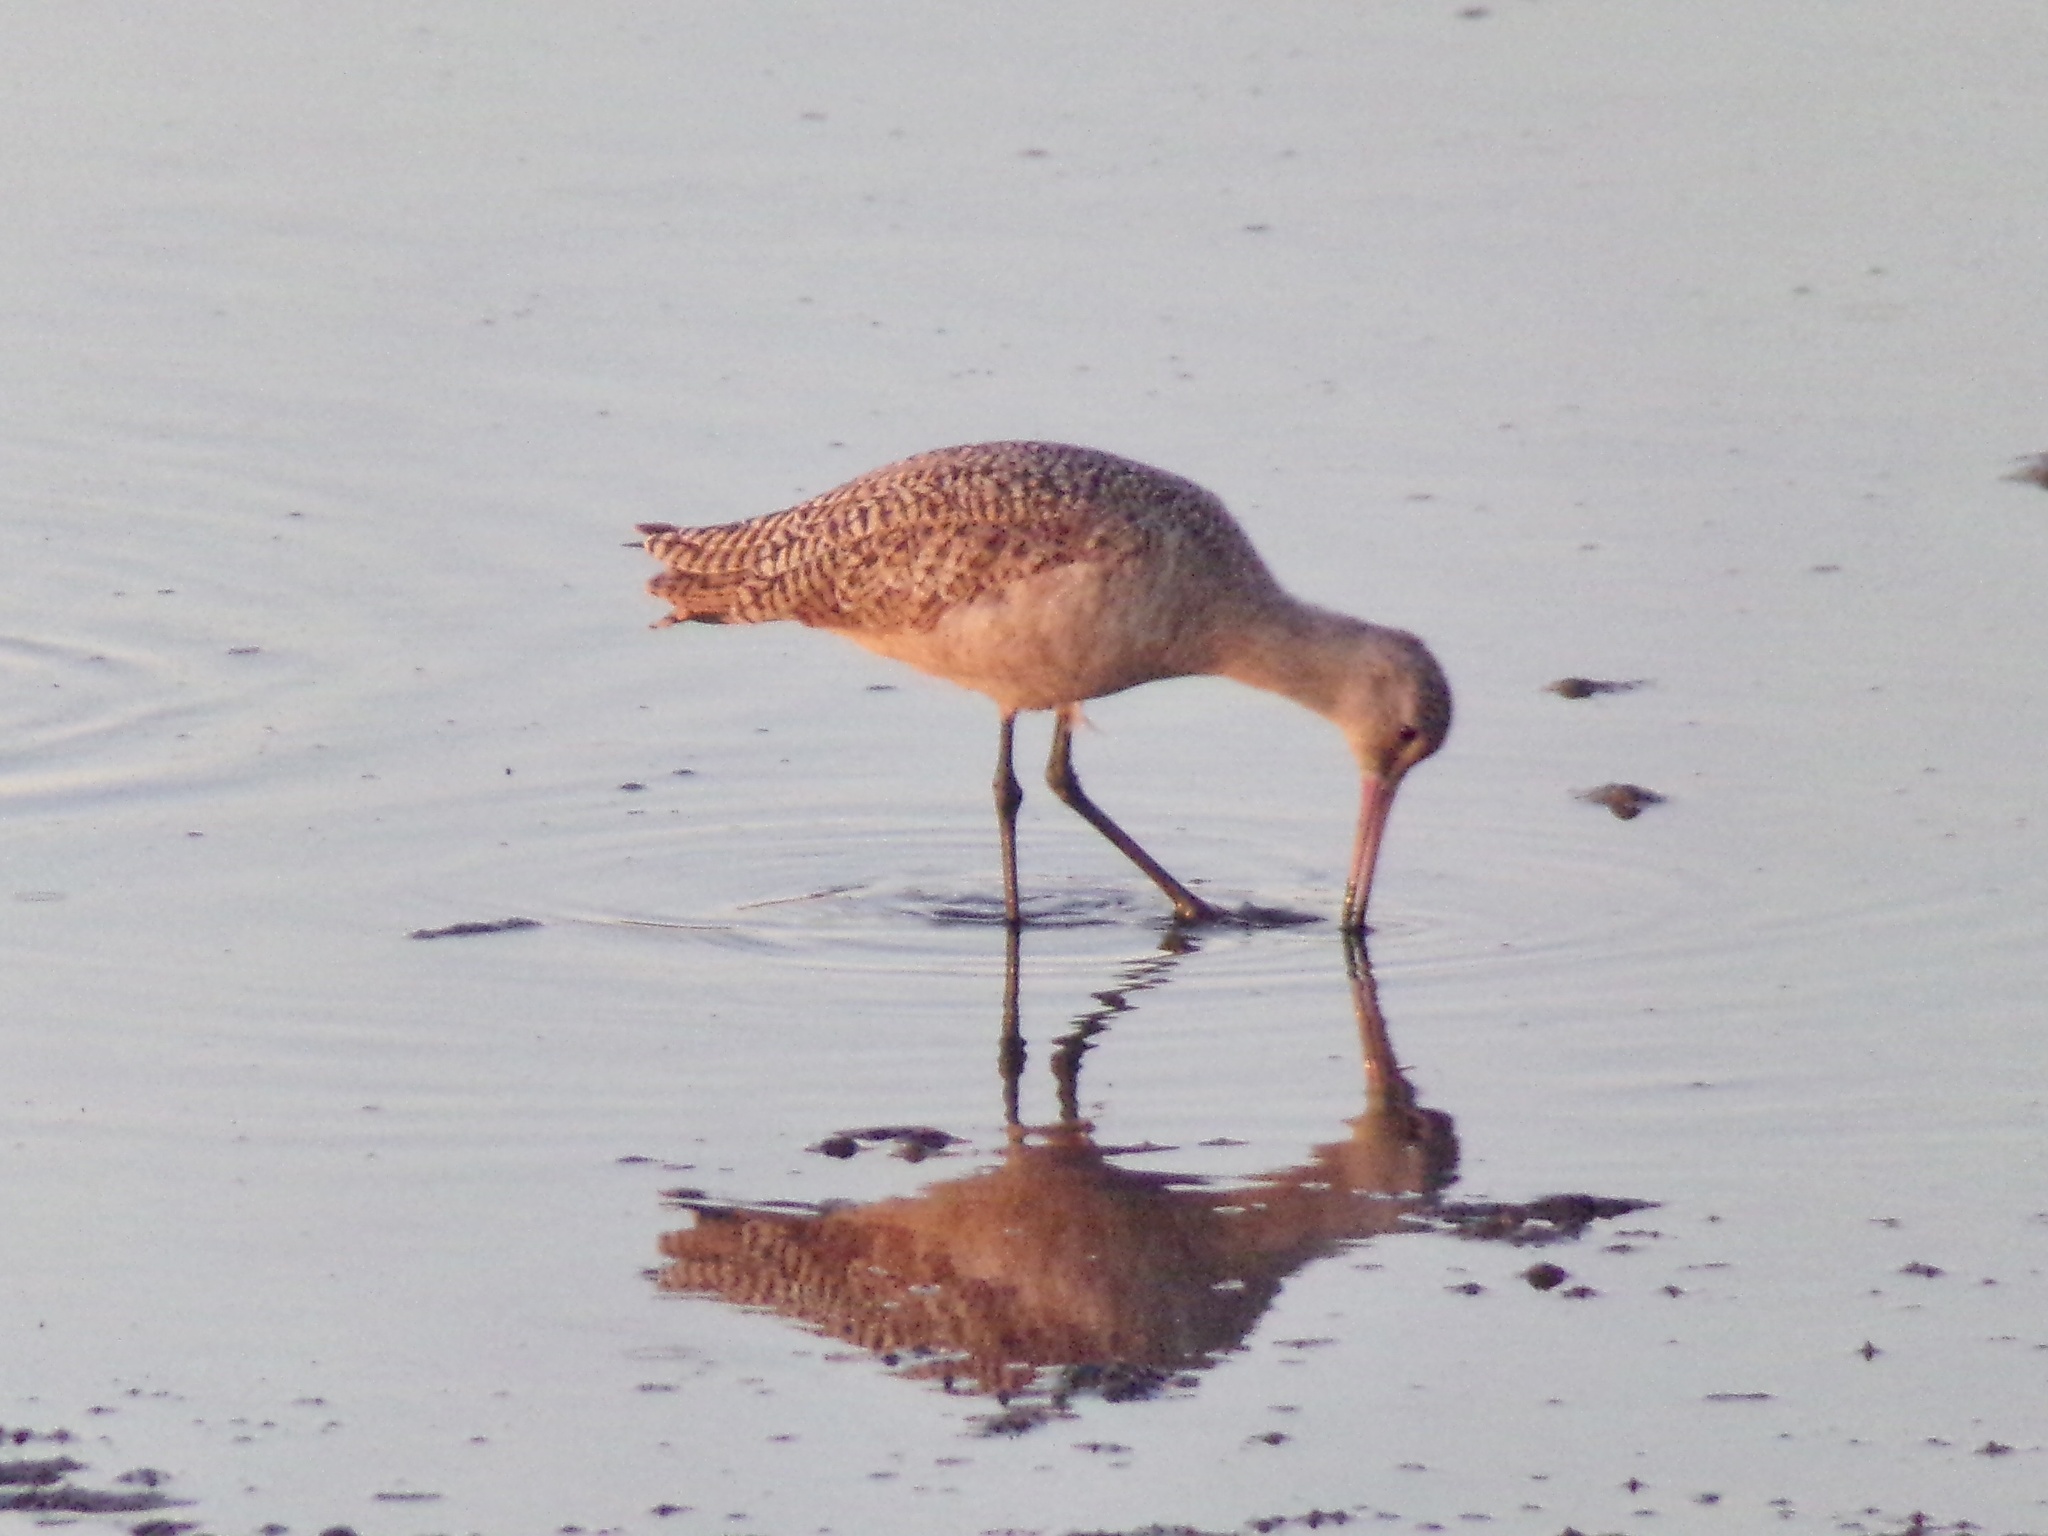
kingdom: Animalia
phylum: Chordata
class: Aves
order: Charadriiformes
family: Scolopacidae
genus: Limosa
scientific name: Limosa fedoa
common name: Marbled godwit
